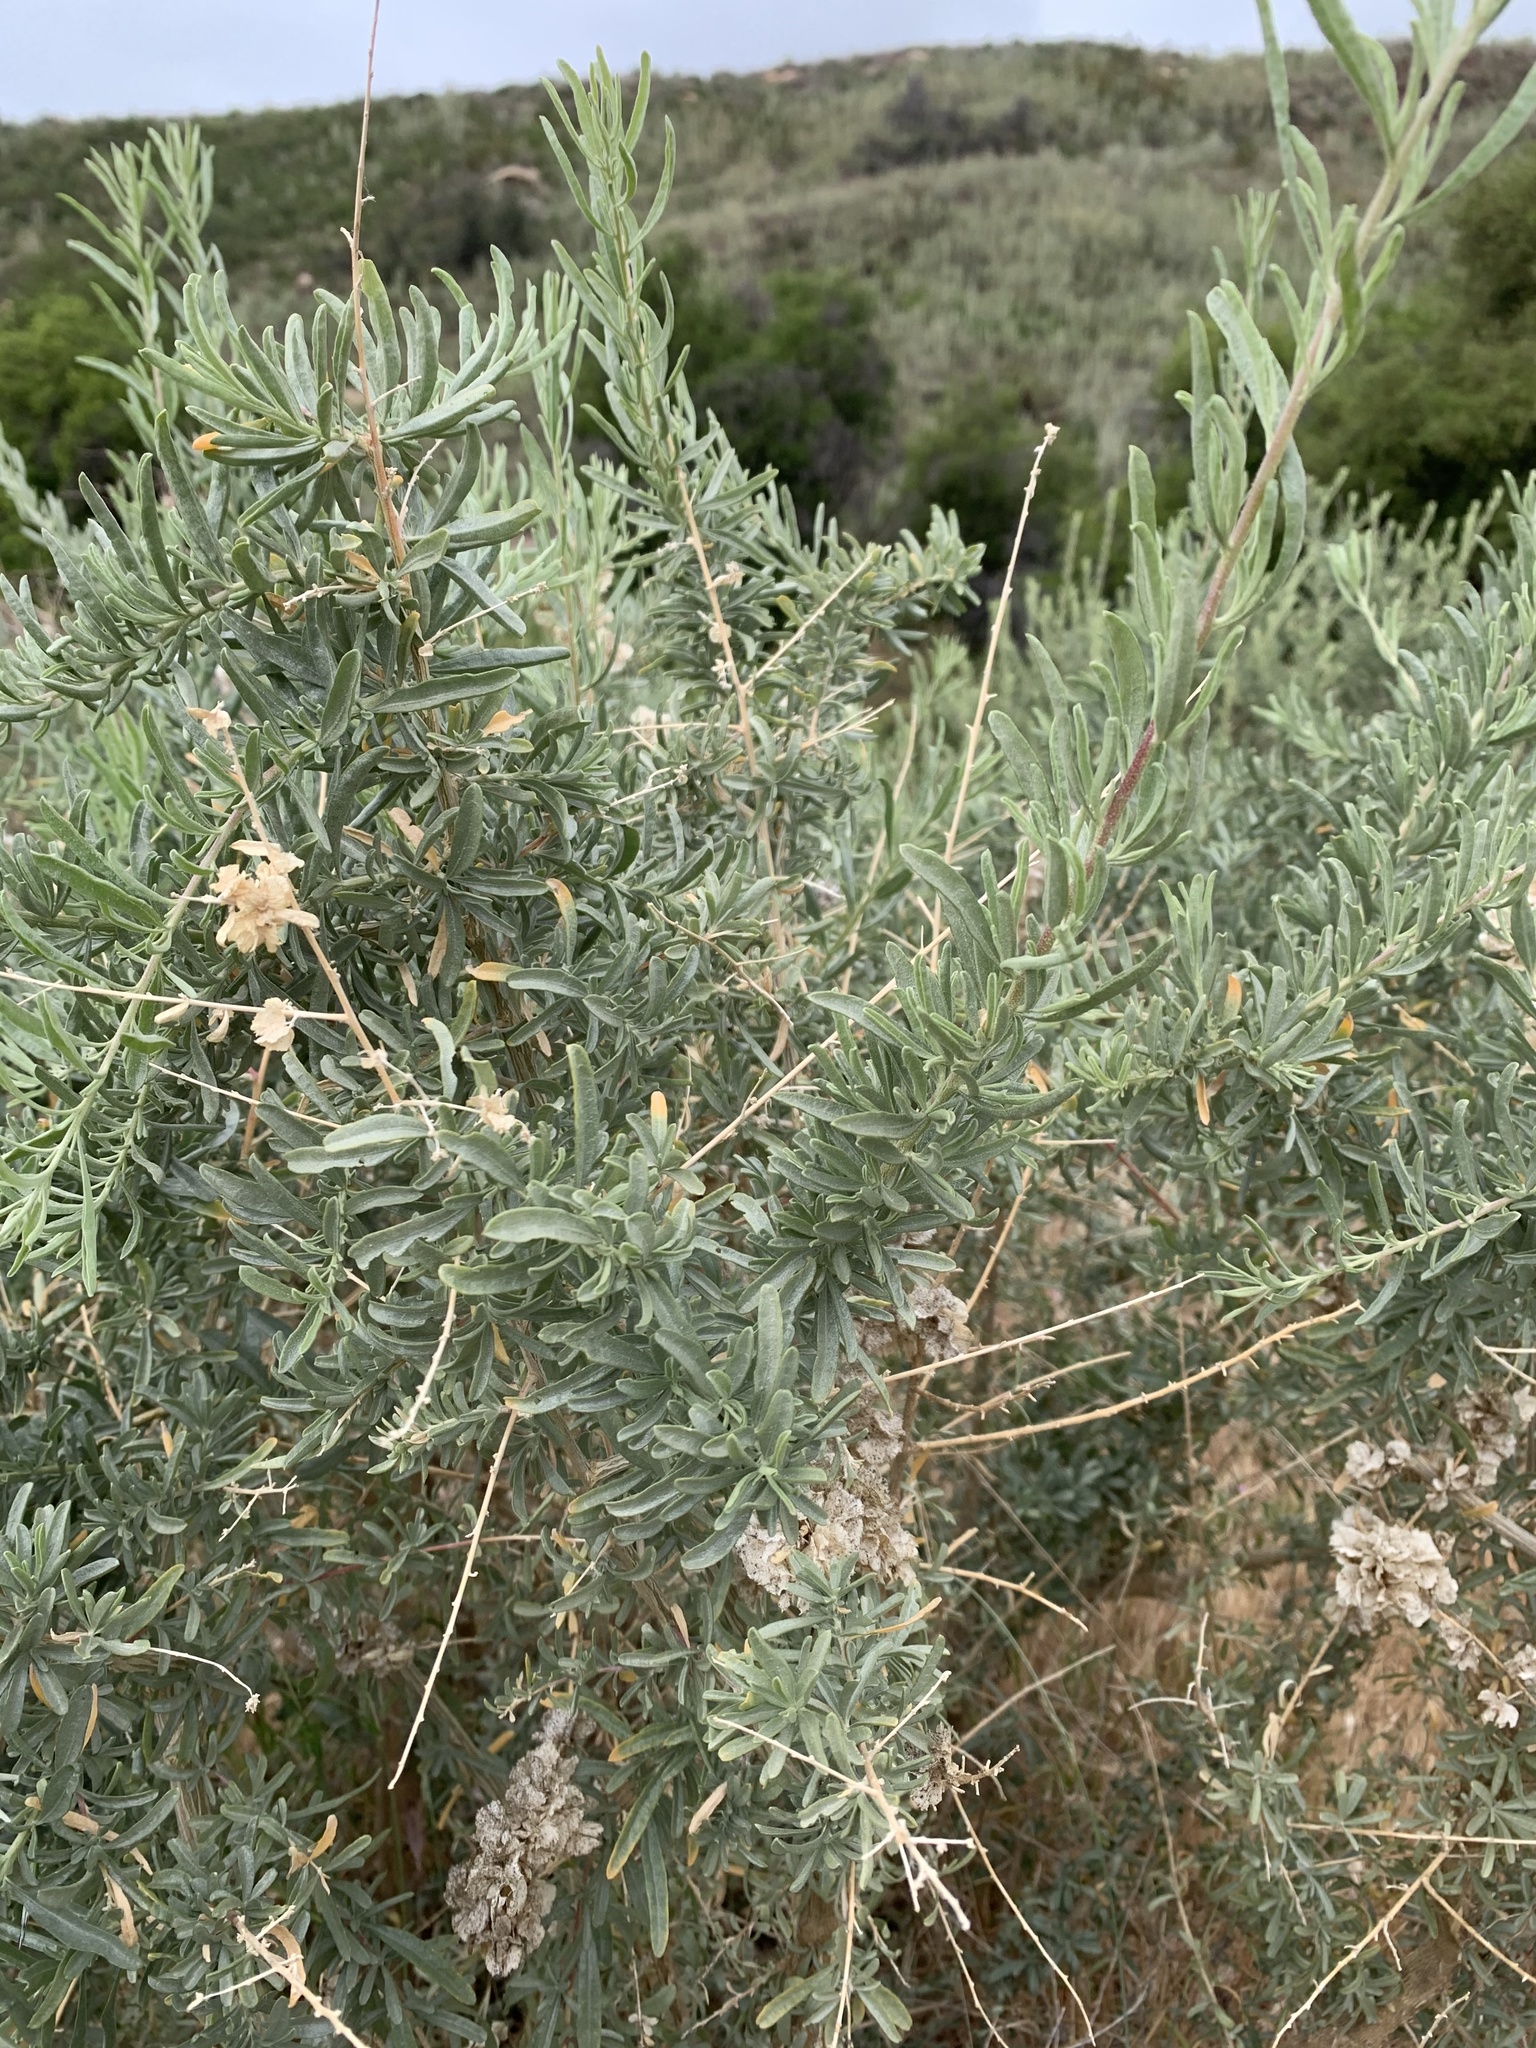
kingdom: Plantae
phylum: Tracheophyta
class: Magnoliopsida
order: Caryophyllales
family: Amaranthaceae
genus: Atriplex
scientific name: Atriplex canescens
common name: Four-wing saltbush
